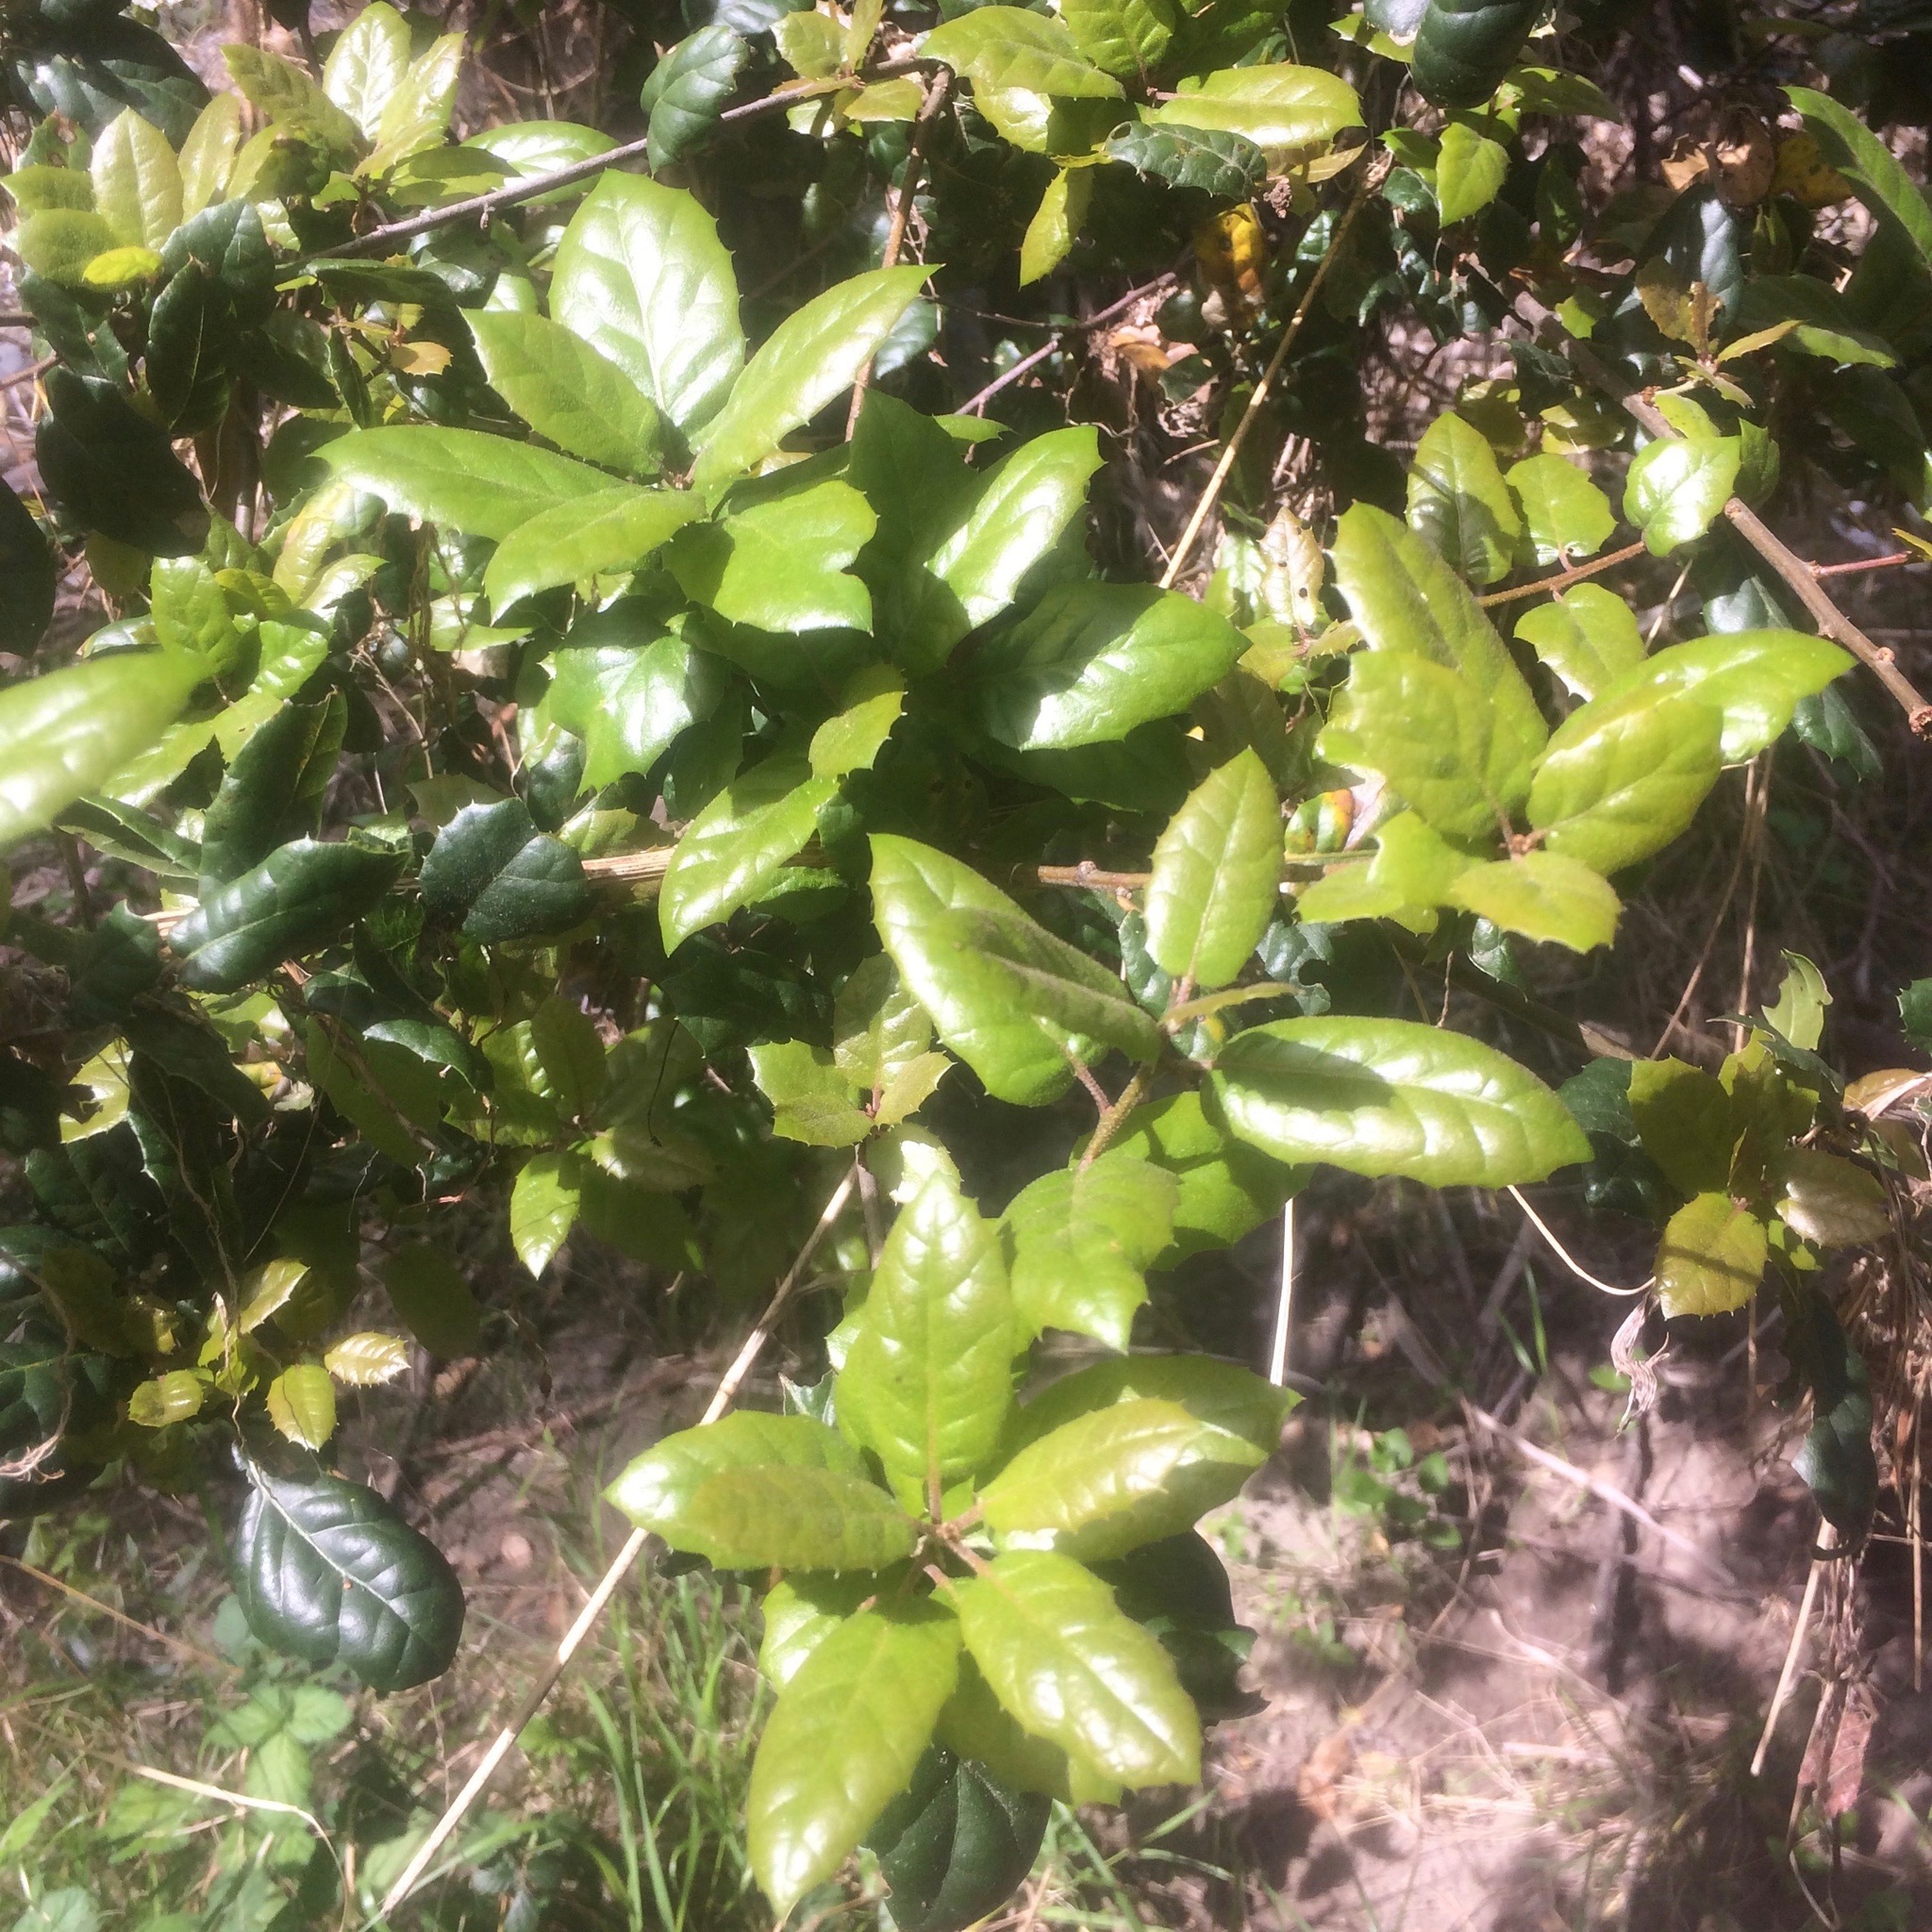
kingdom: Plantae
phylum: Tracheophyta
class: Magnoliopsida
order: Fagales
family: Fagaceae
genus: Quercus
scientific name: Quercus agrifolia
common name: California live oak
